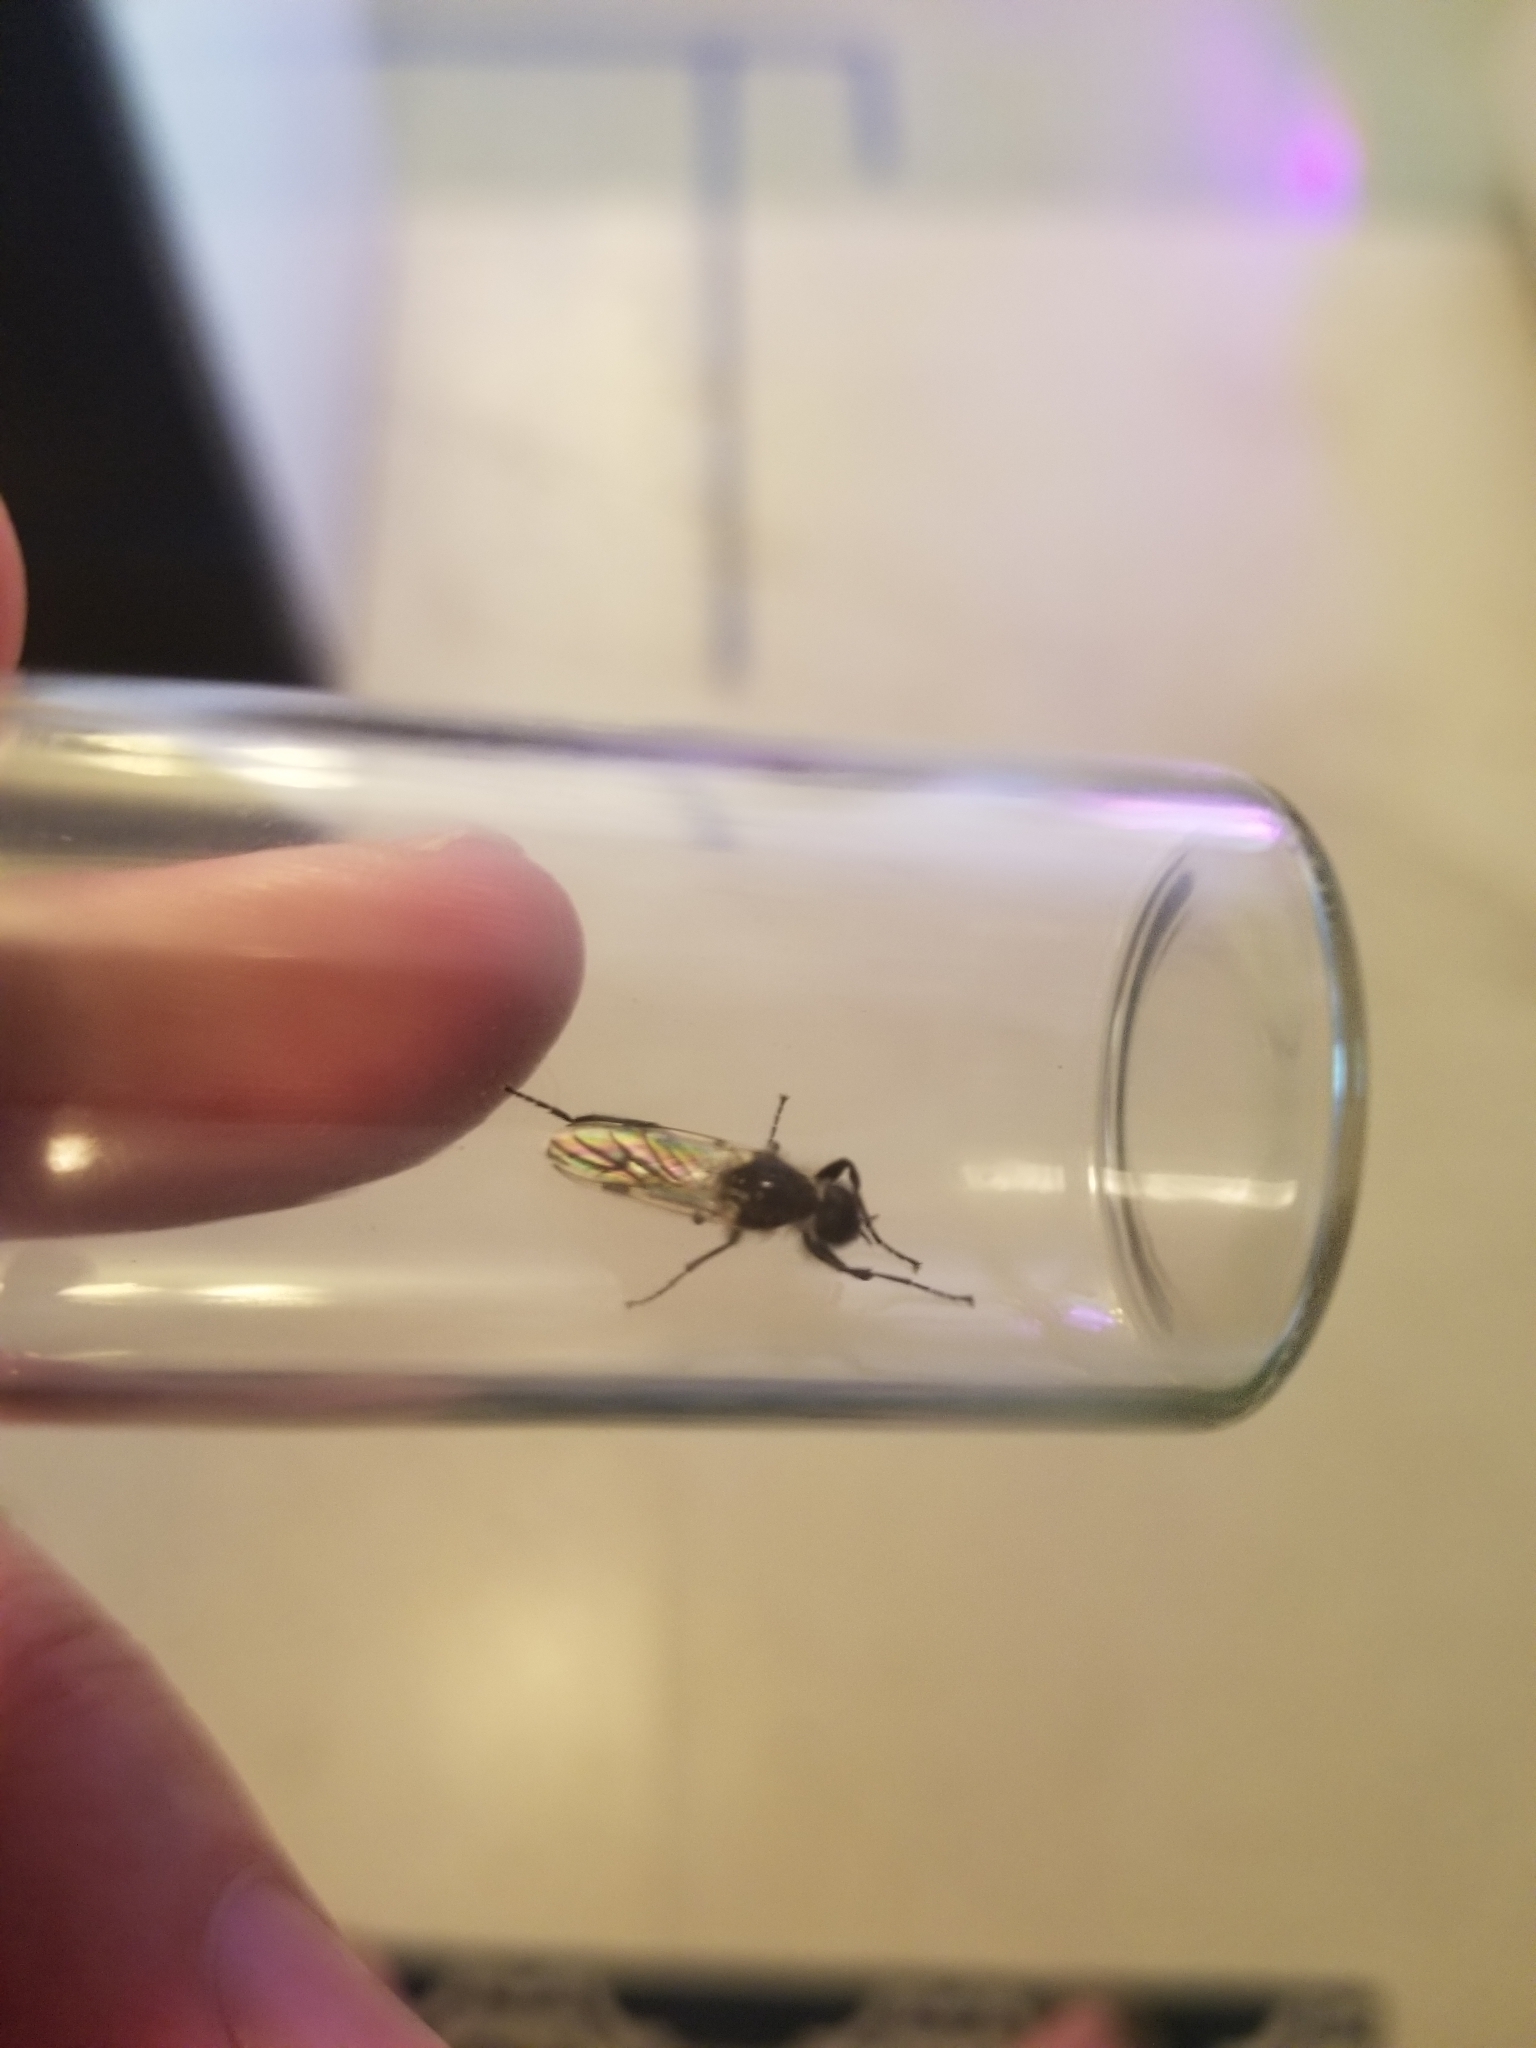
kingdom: Animalia
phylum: Arthropoda
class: Insecta
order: Diptera
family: Bibionidae
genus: Bibio
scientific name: Bibio albipennis
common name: White-winged march fly
